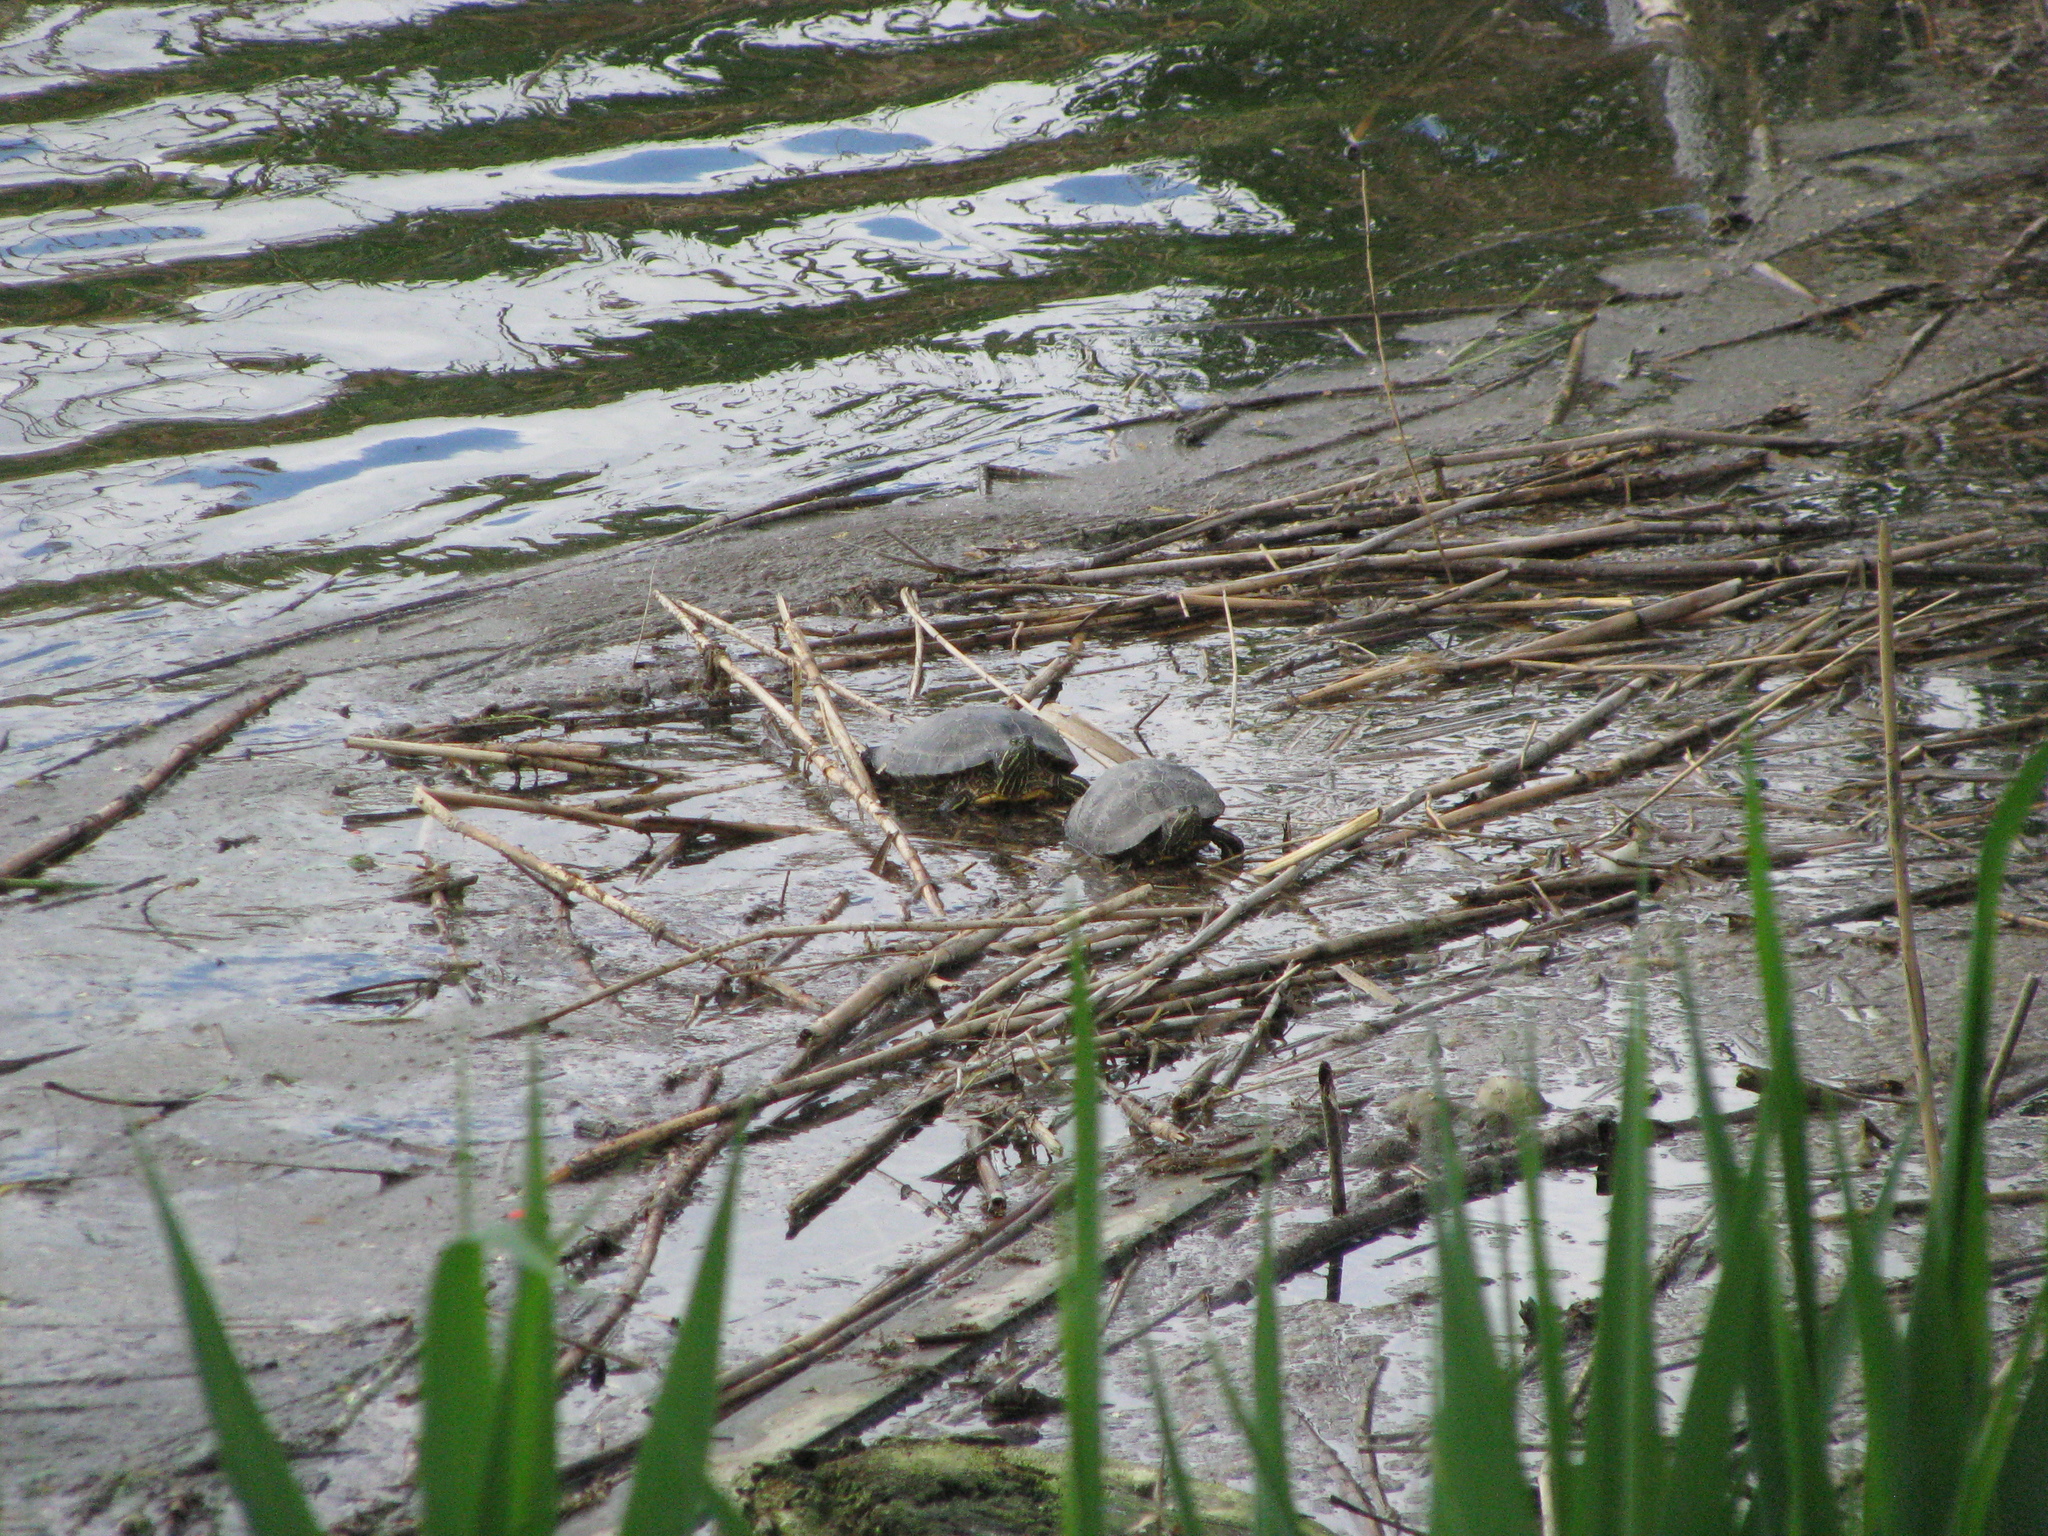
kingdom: Animalia
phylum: Chordata
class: Testudines
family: Emydidae
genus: Trachemys
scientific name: Trachemys scripta
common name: Slider
